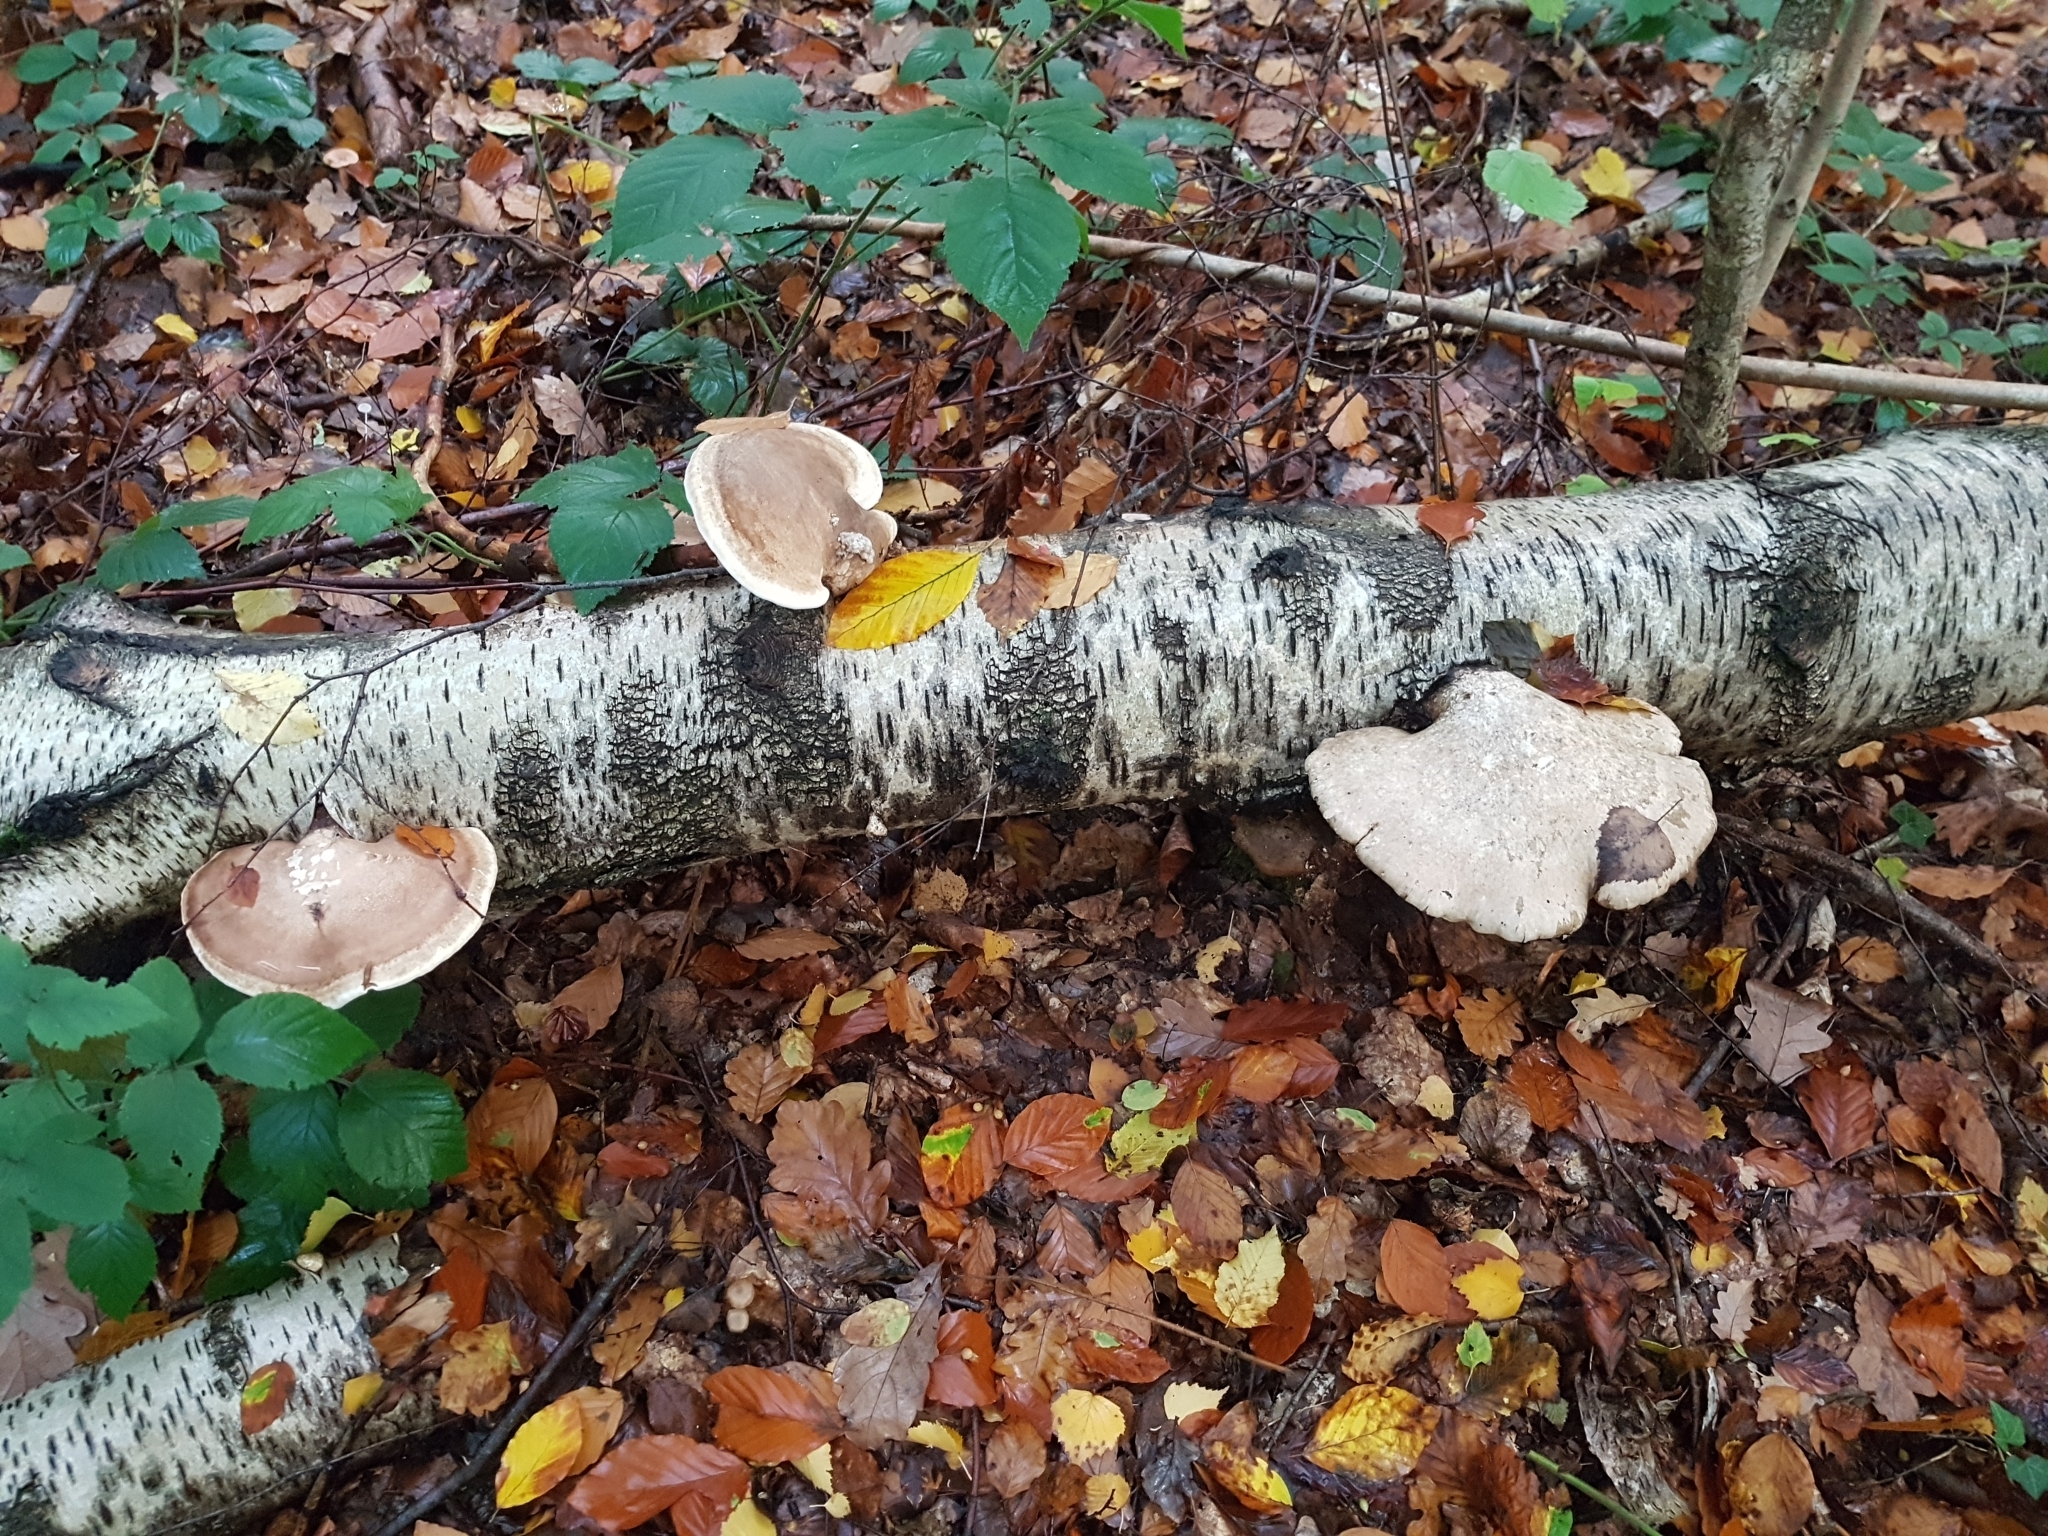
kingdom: Fungi
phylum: Basidiomycota
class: Agaricomycetes
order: Polyporales
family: Fomitopsidaceae
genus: Fomitopsis
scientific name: Fomitopsis betulina
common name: Birch polypore
